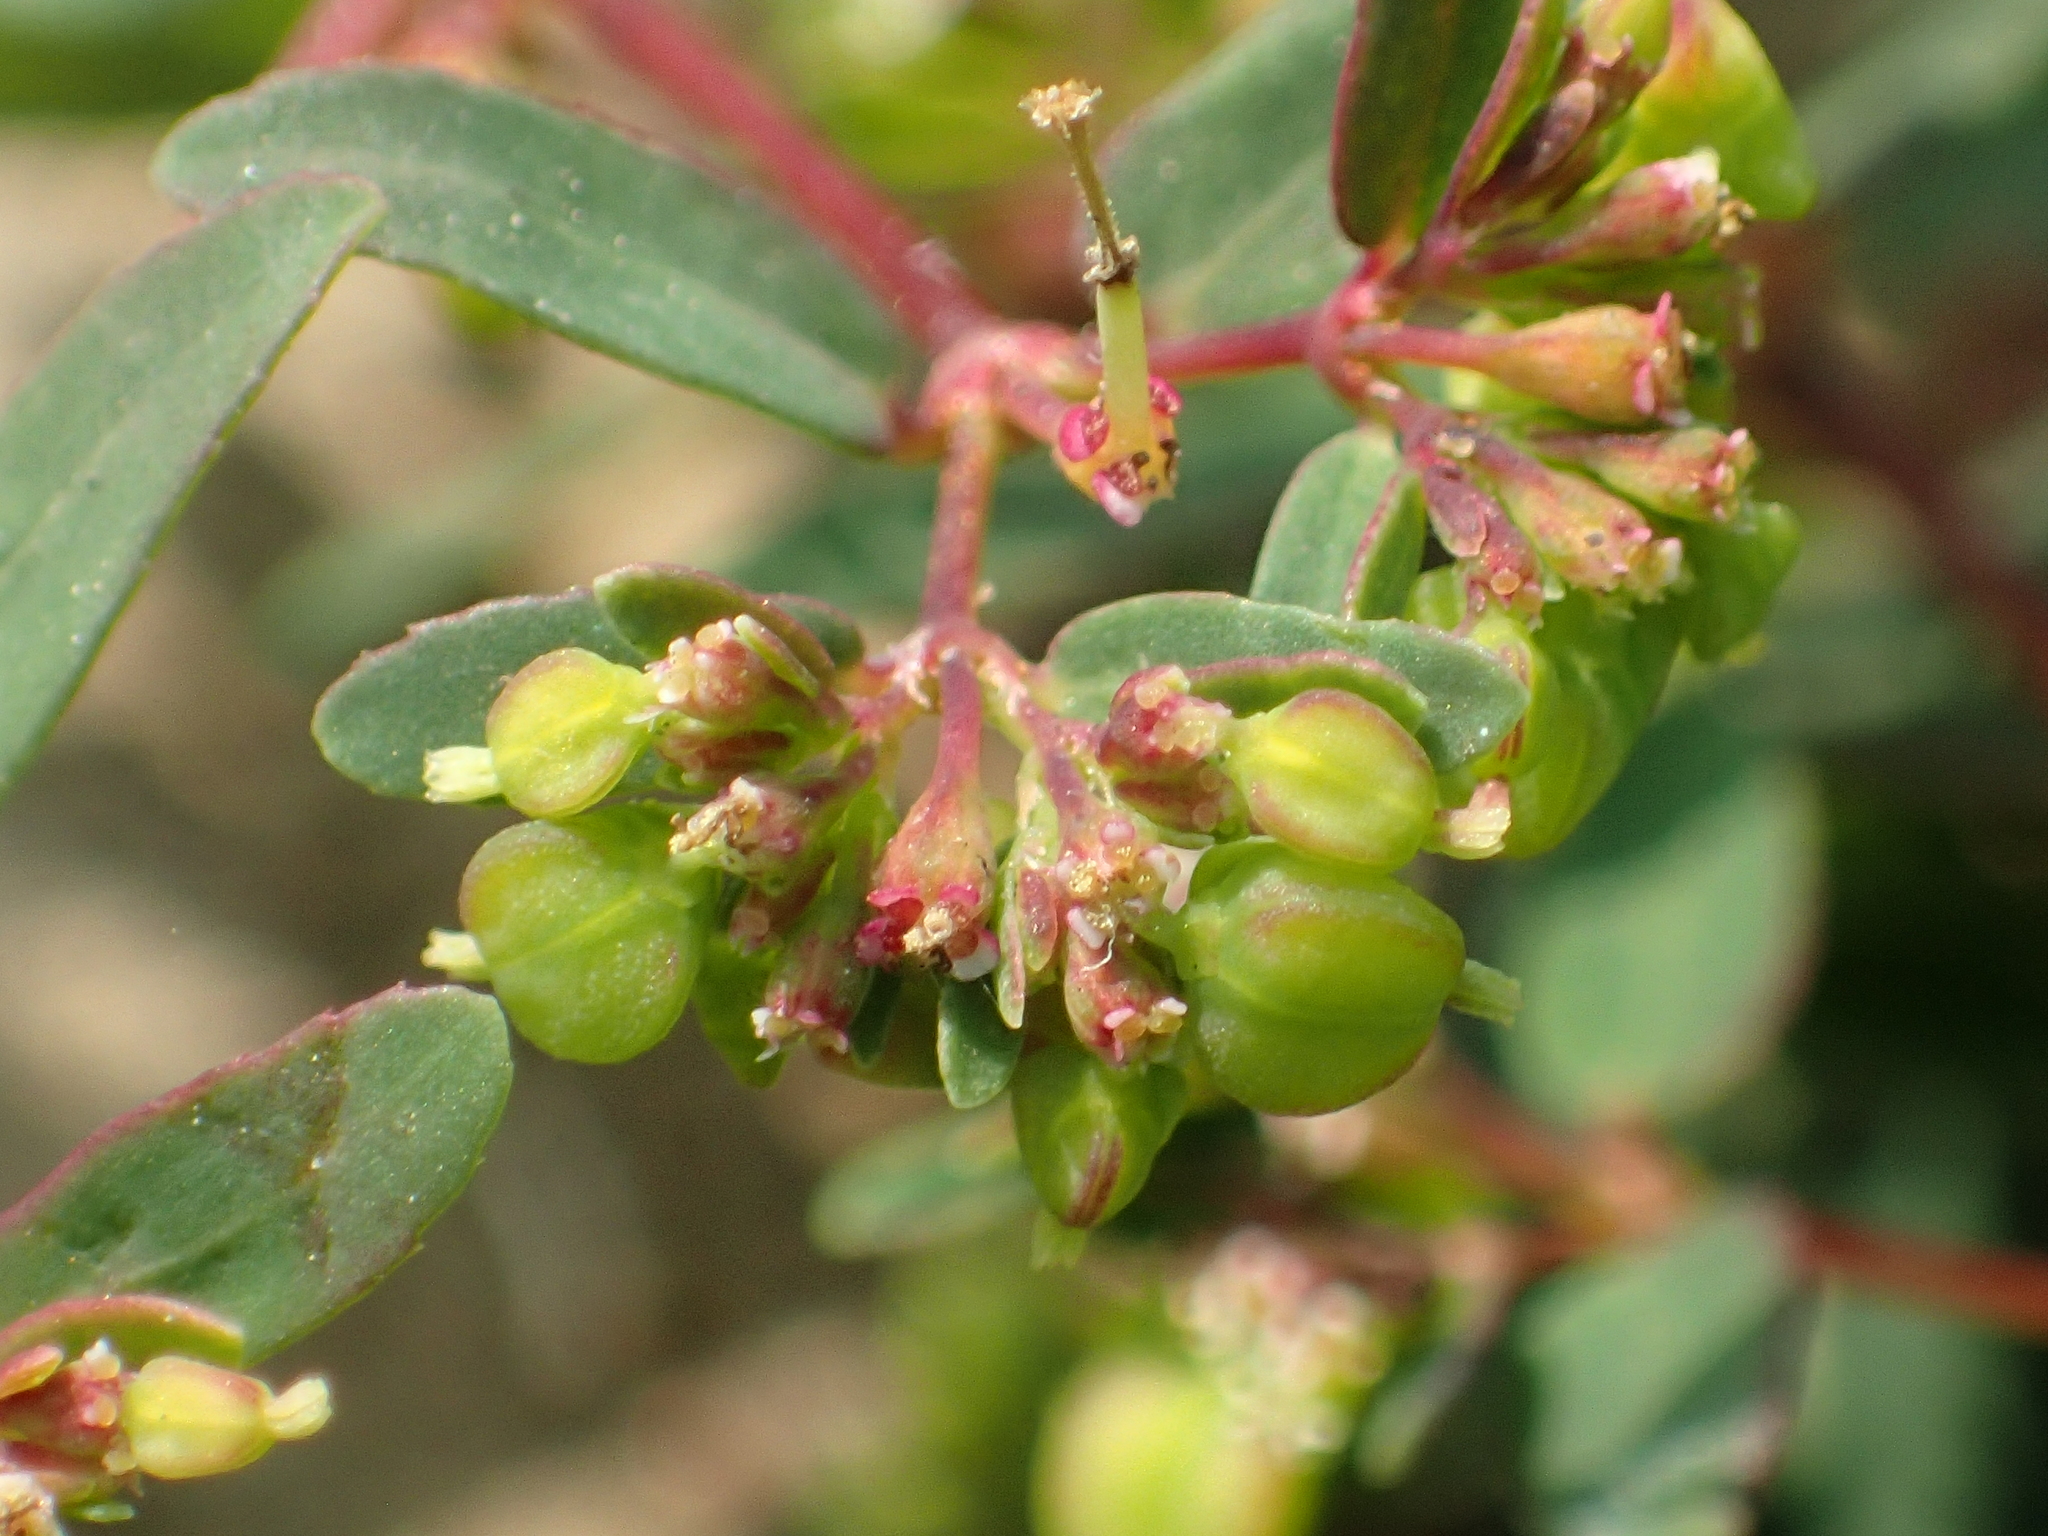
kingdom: Plantae
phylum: Tracheophyta
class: Magnoliopsida
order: Malpighiales
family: Euphorbiaceae
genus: Euphorbia
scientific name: Euphorbia hyssopifolia
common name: Hyssopleaf sandmat
